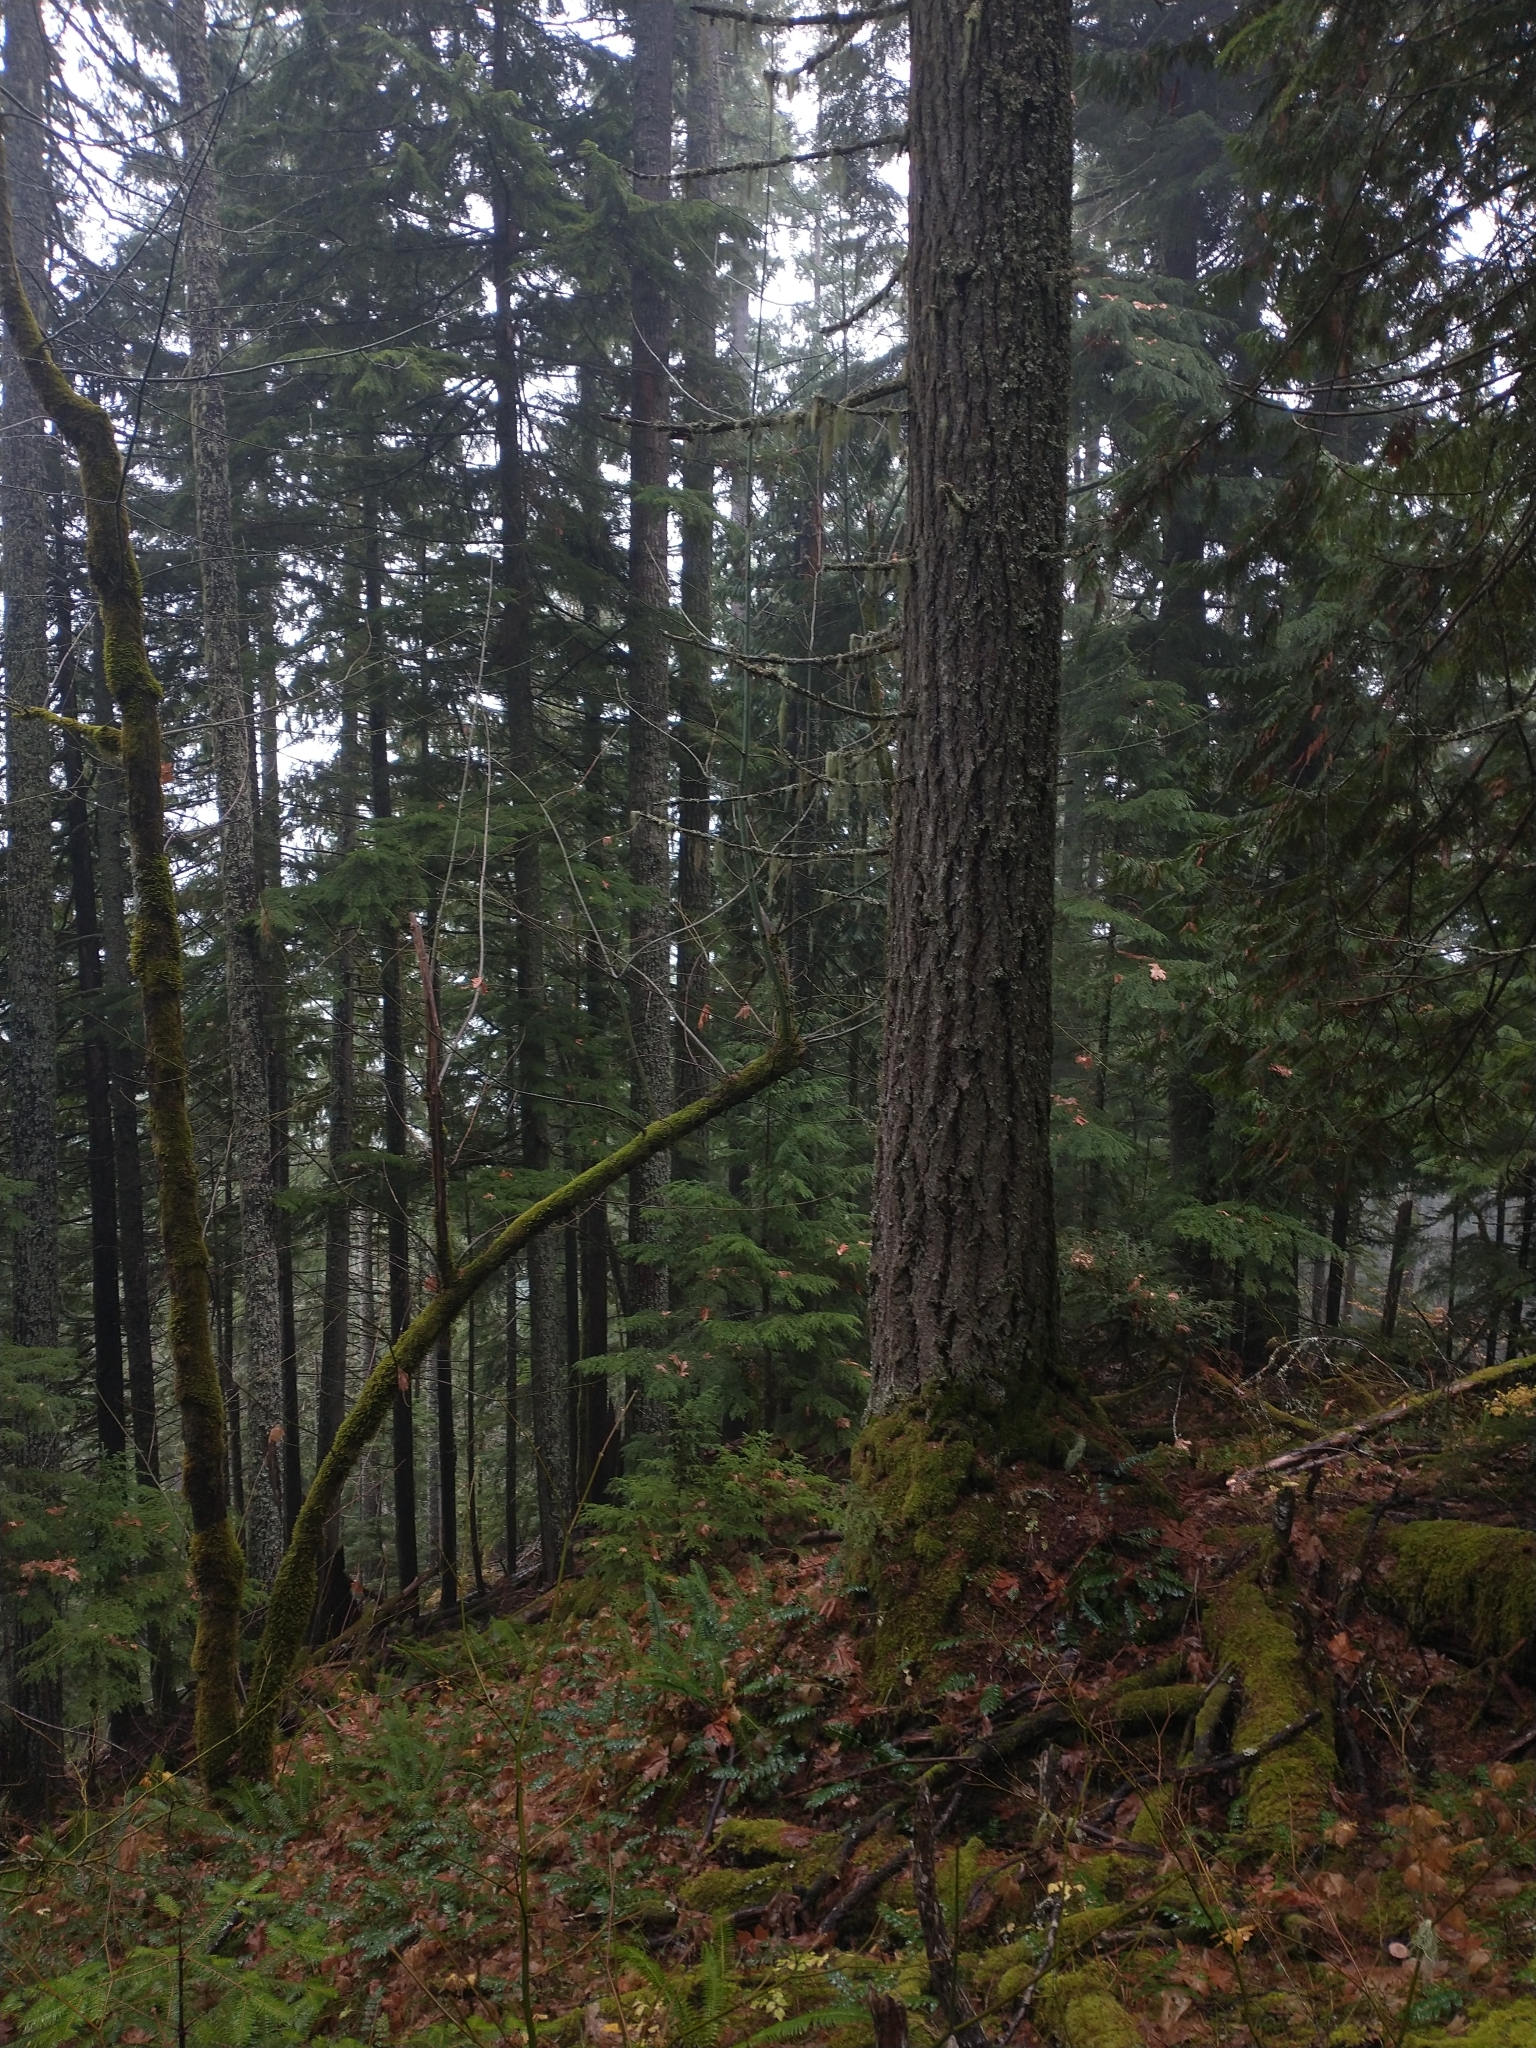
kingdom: Plantae
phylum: Tracheophyta
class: Pinopsida
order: Pinales
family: Pinaceae
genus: Pseudotsuga
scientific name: Pseudotsuga menziesii
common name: Douglas fir
